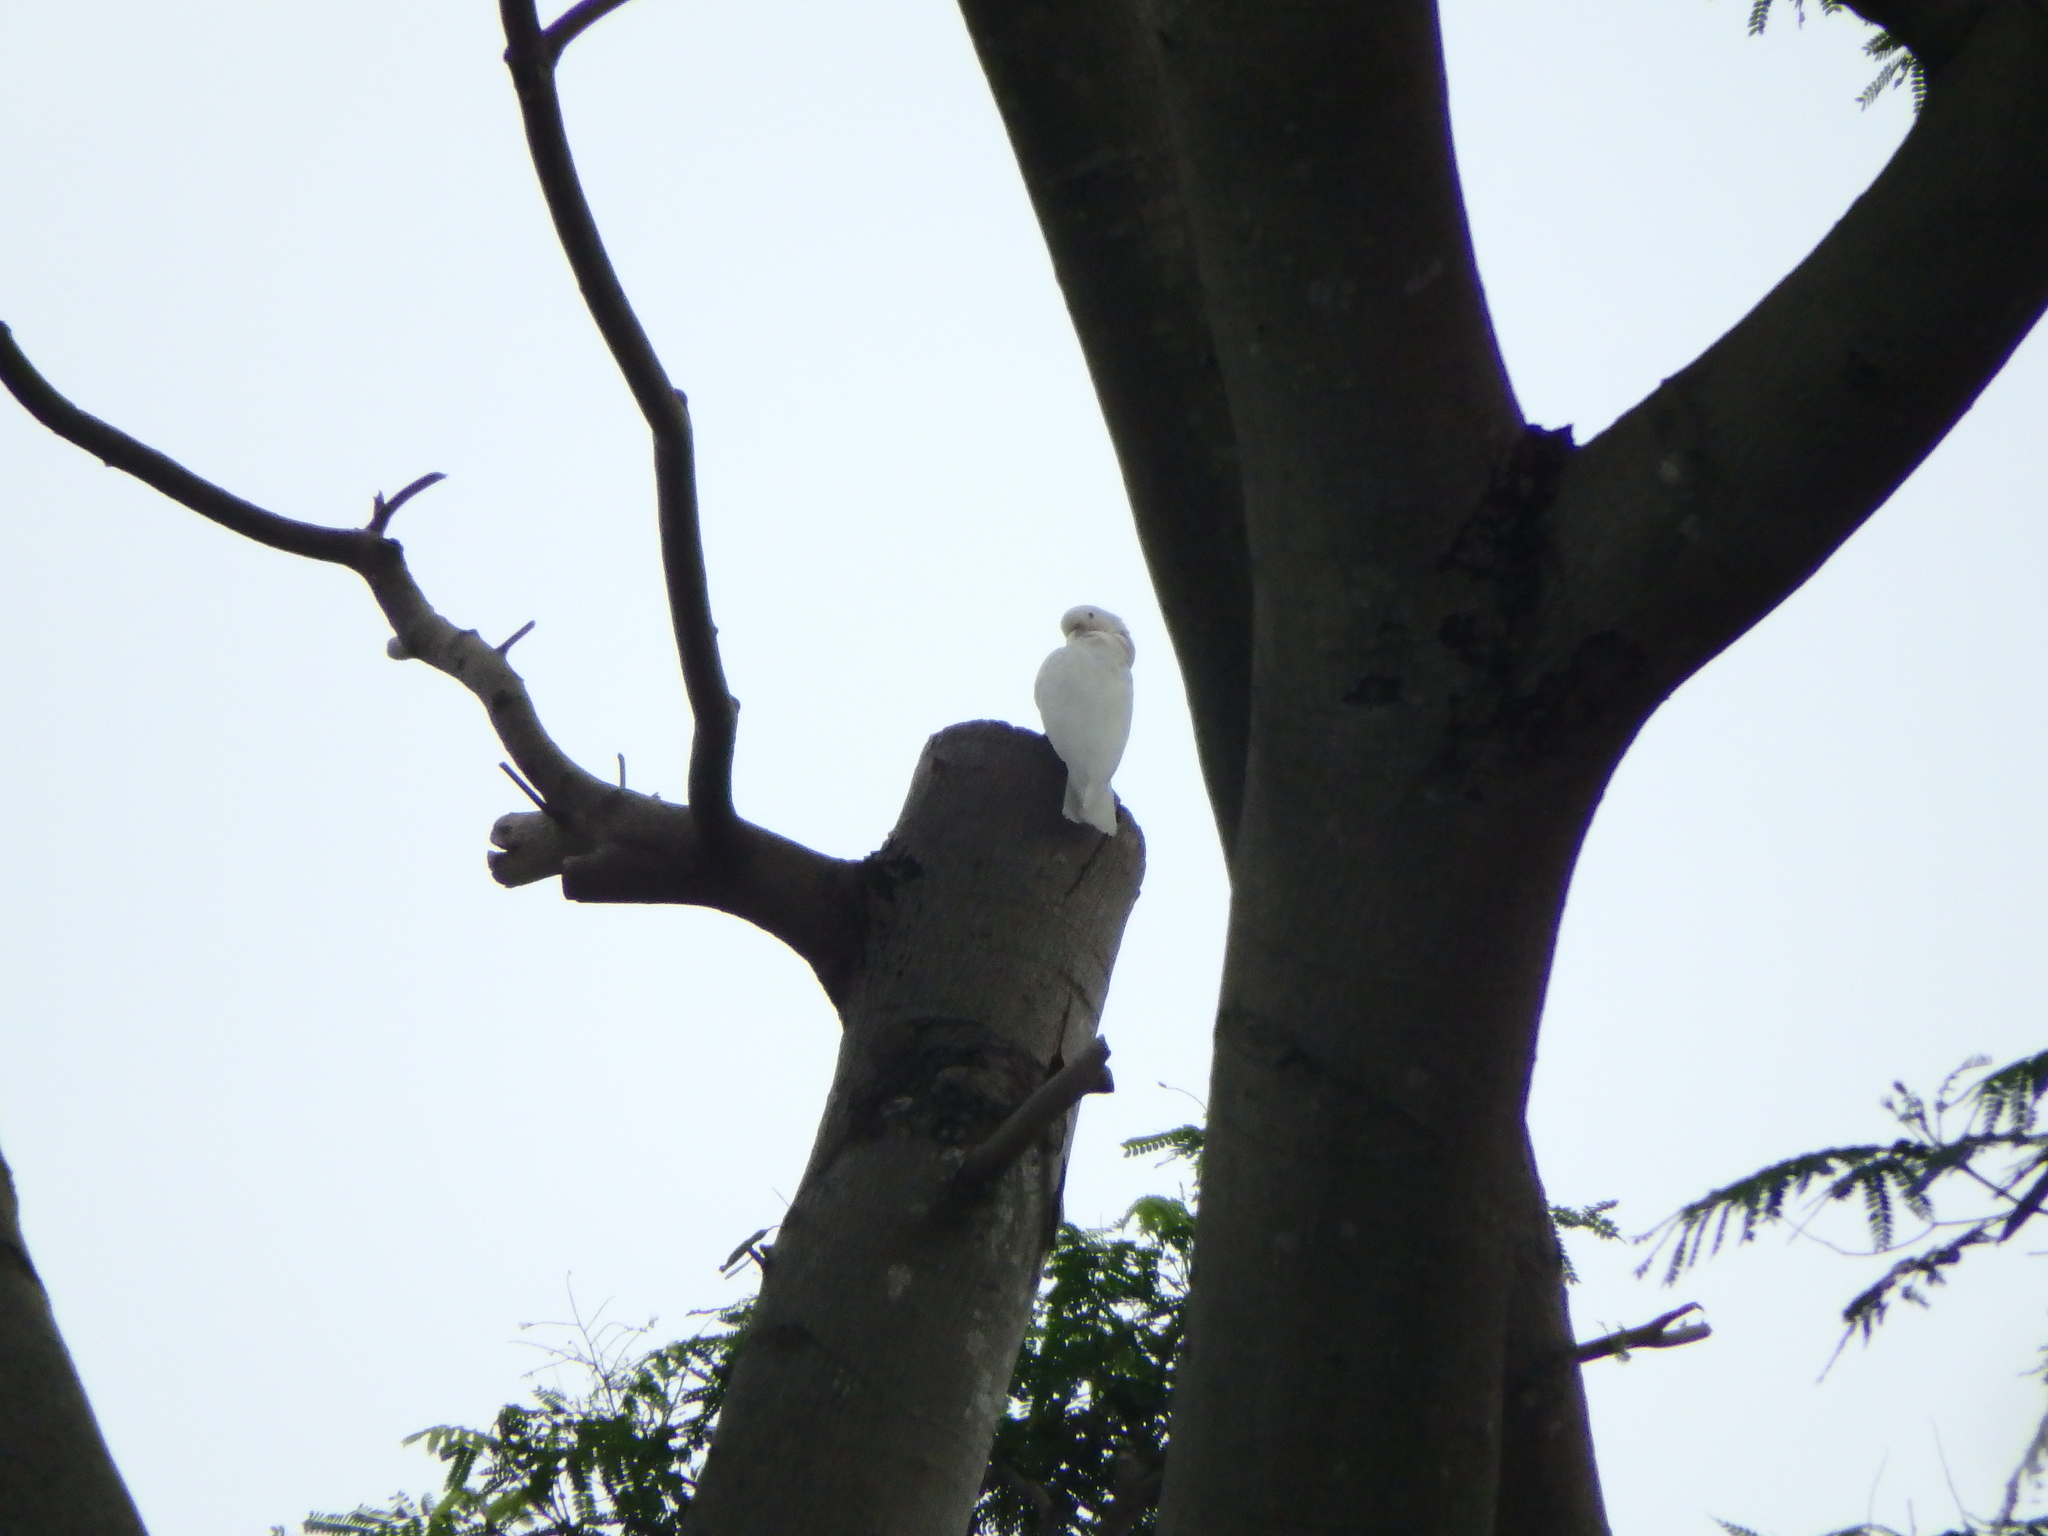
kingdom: Animalia
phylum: Chordata
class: Aves
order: Psittaciformes
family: Psittacidae
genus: Cacatua
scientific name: Cacatua goffiniana
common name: Tanimbar corella
